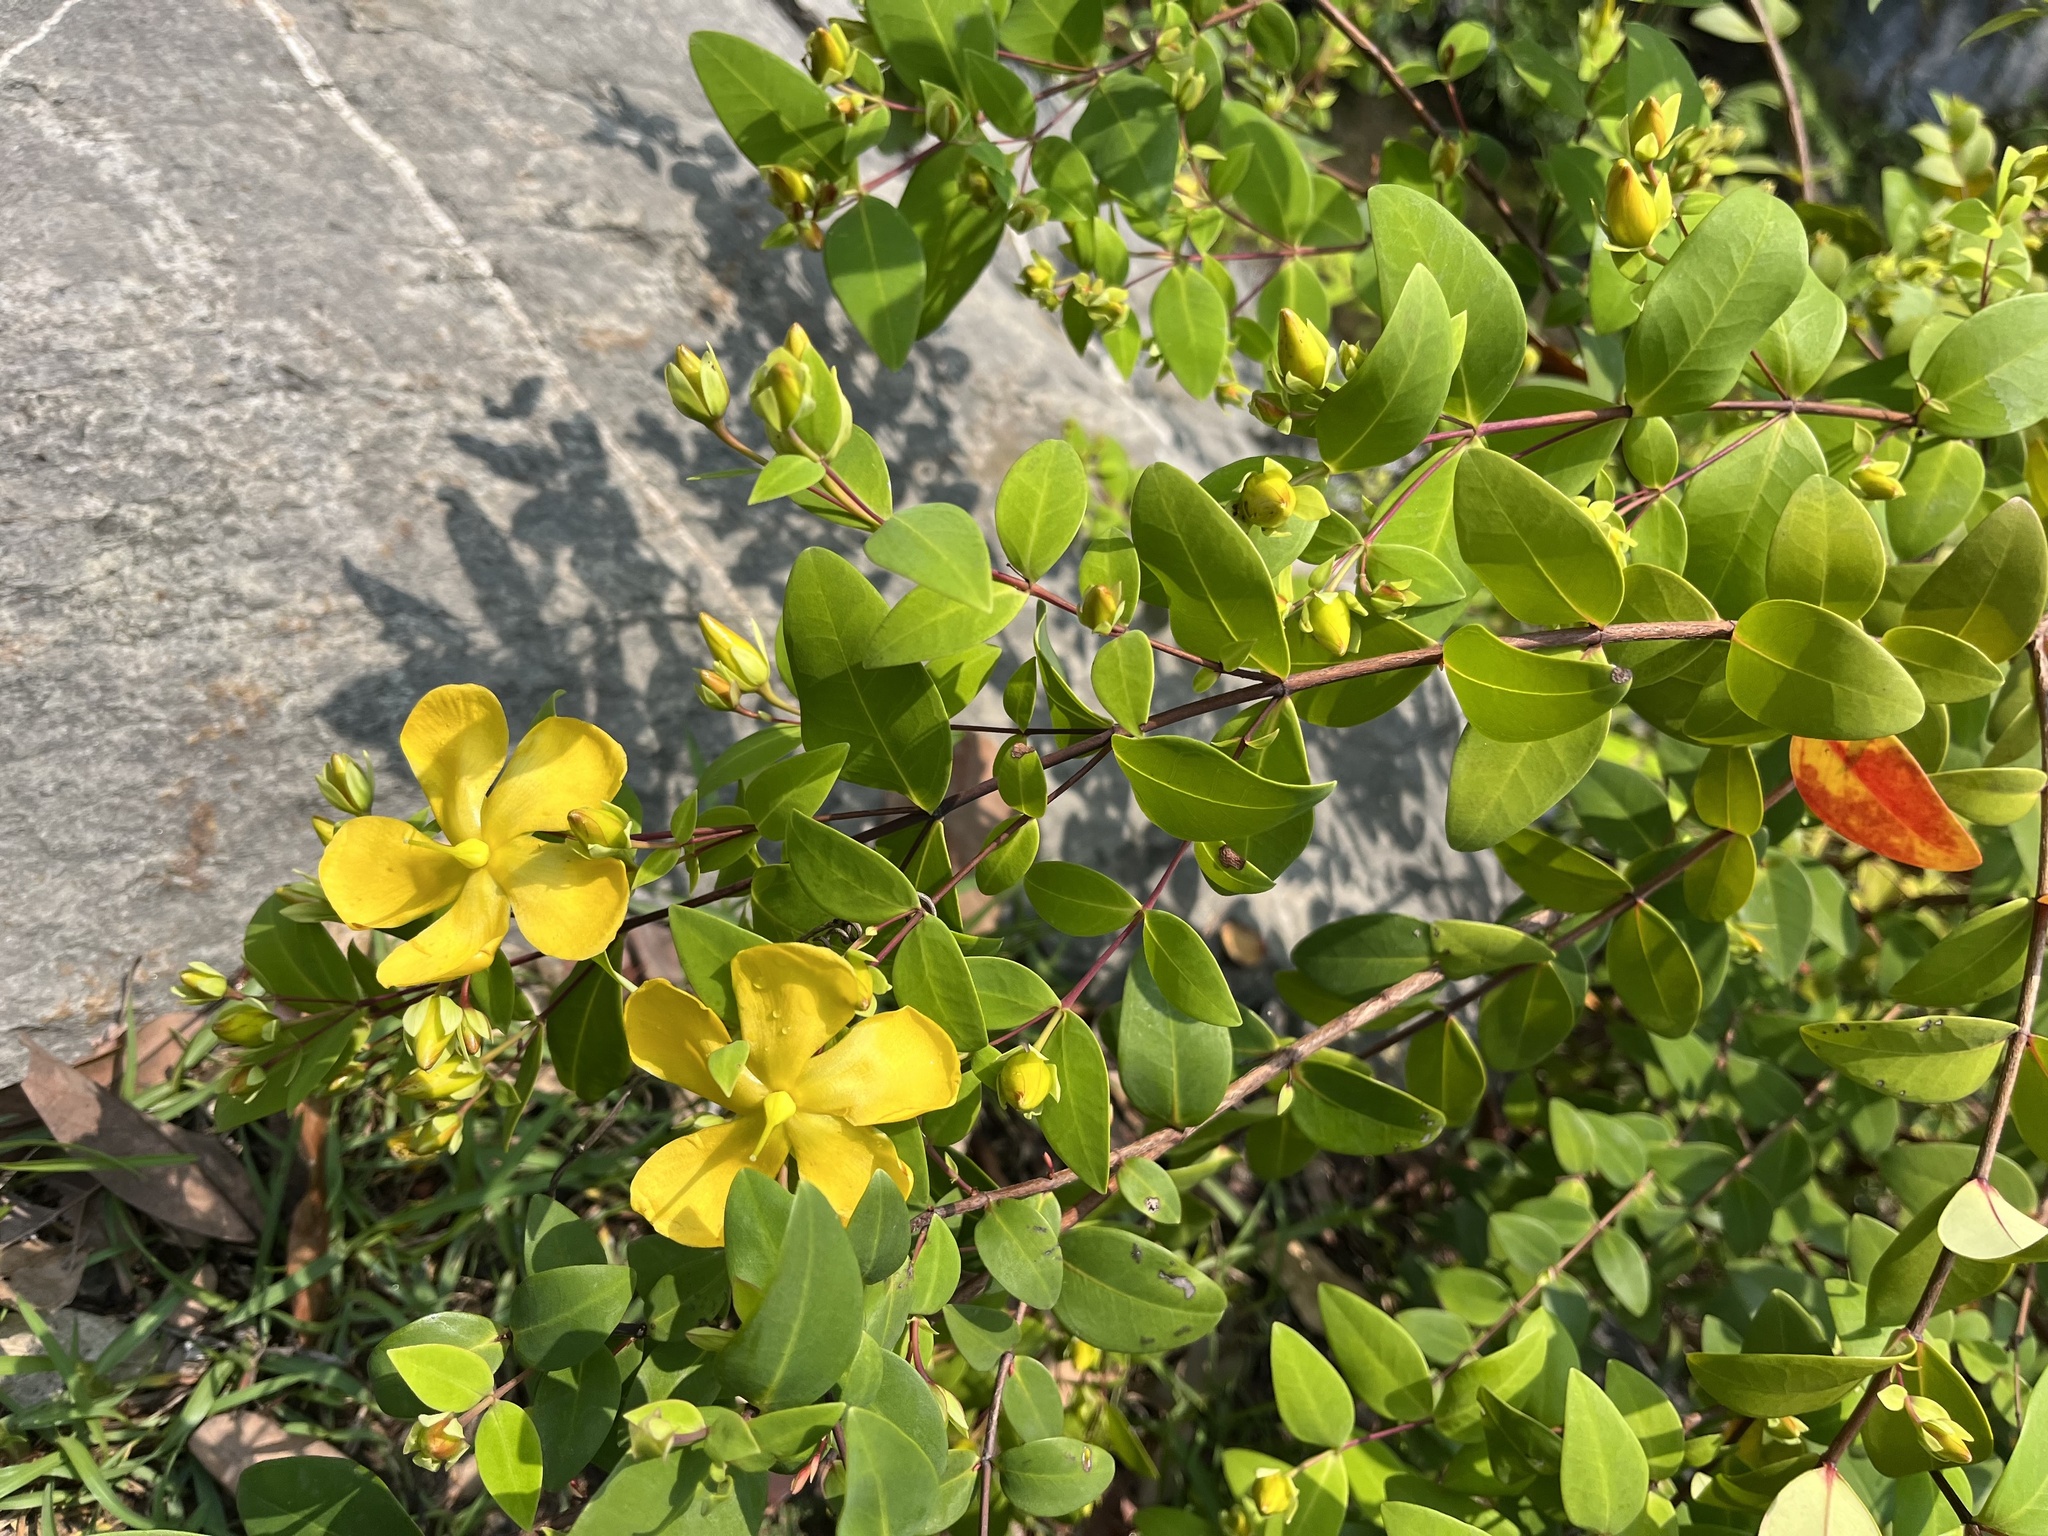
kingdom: Plantae
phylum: Tracheophyta
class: Magnoliopsida
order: Malpighiales
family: Hypericaceae
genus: Hypericum
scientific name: Hypericum formosanum
